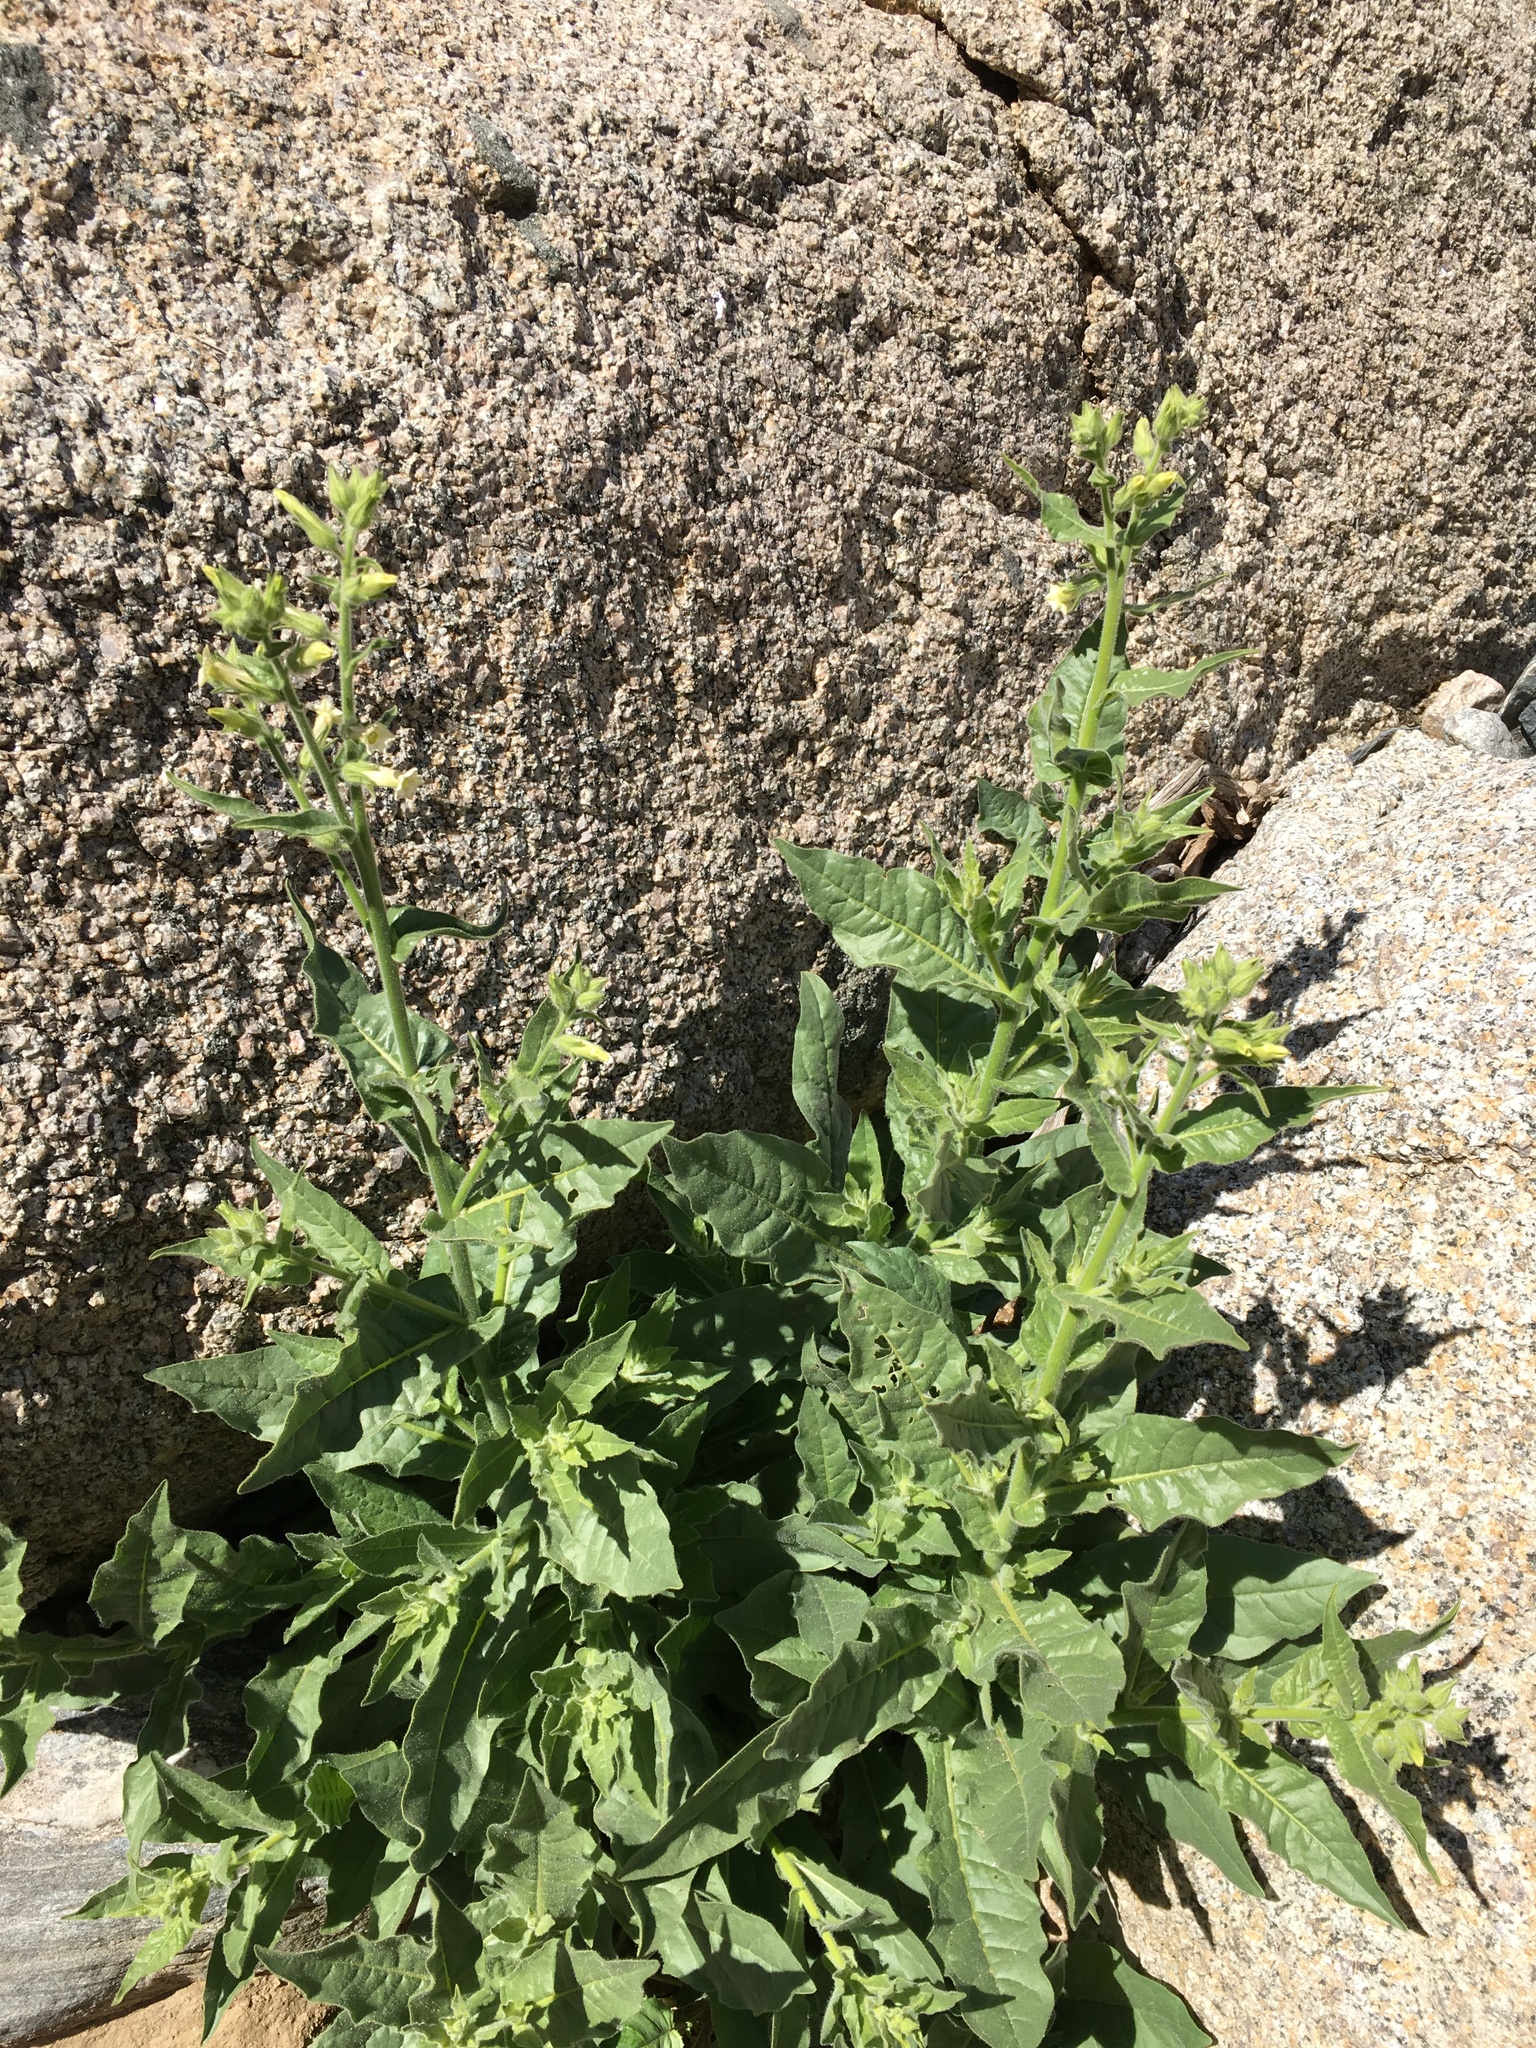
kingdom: Plantae
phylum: Tracheophyta
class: Magnoliopsida
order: Solanales
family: Solanaceae
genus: Nicotiana
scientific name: Nicotiana obtusifolia
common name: Desert tobacco
